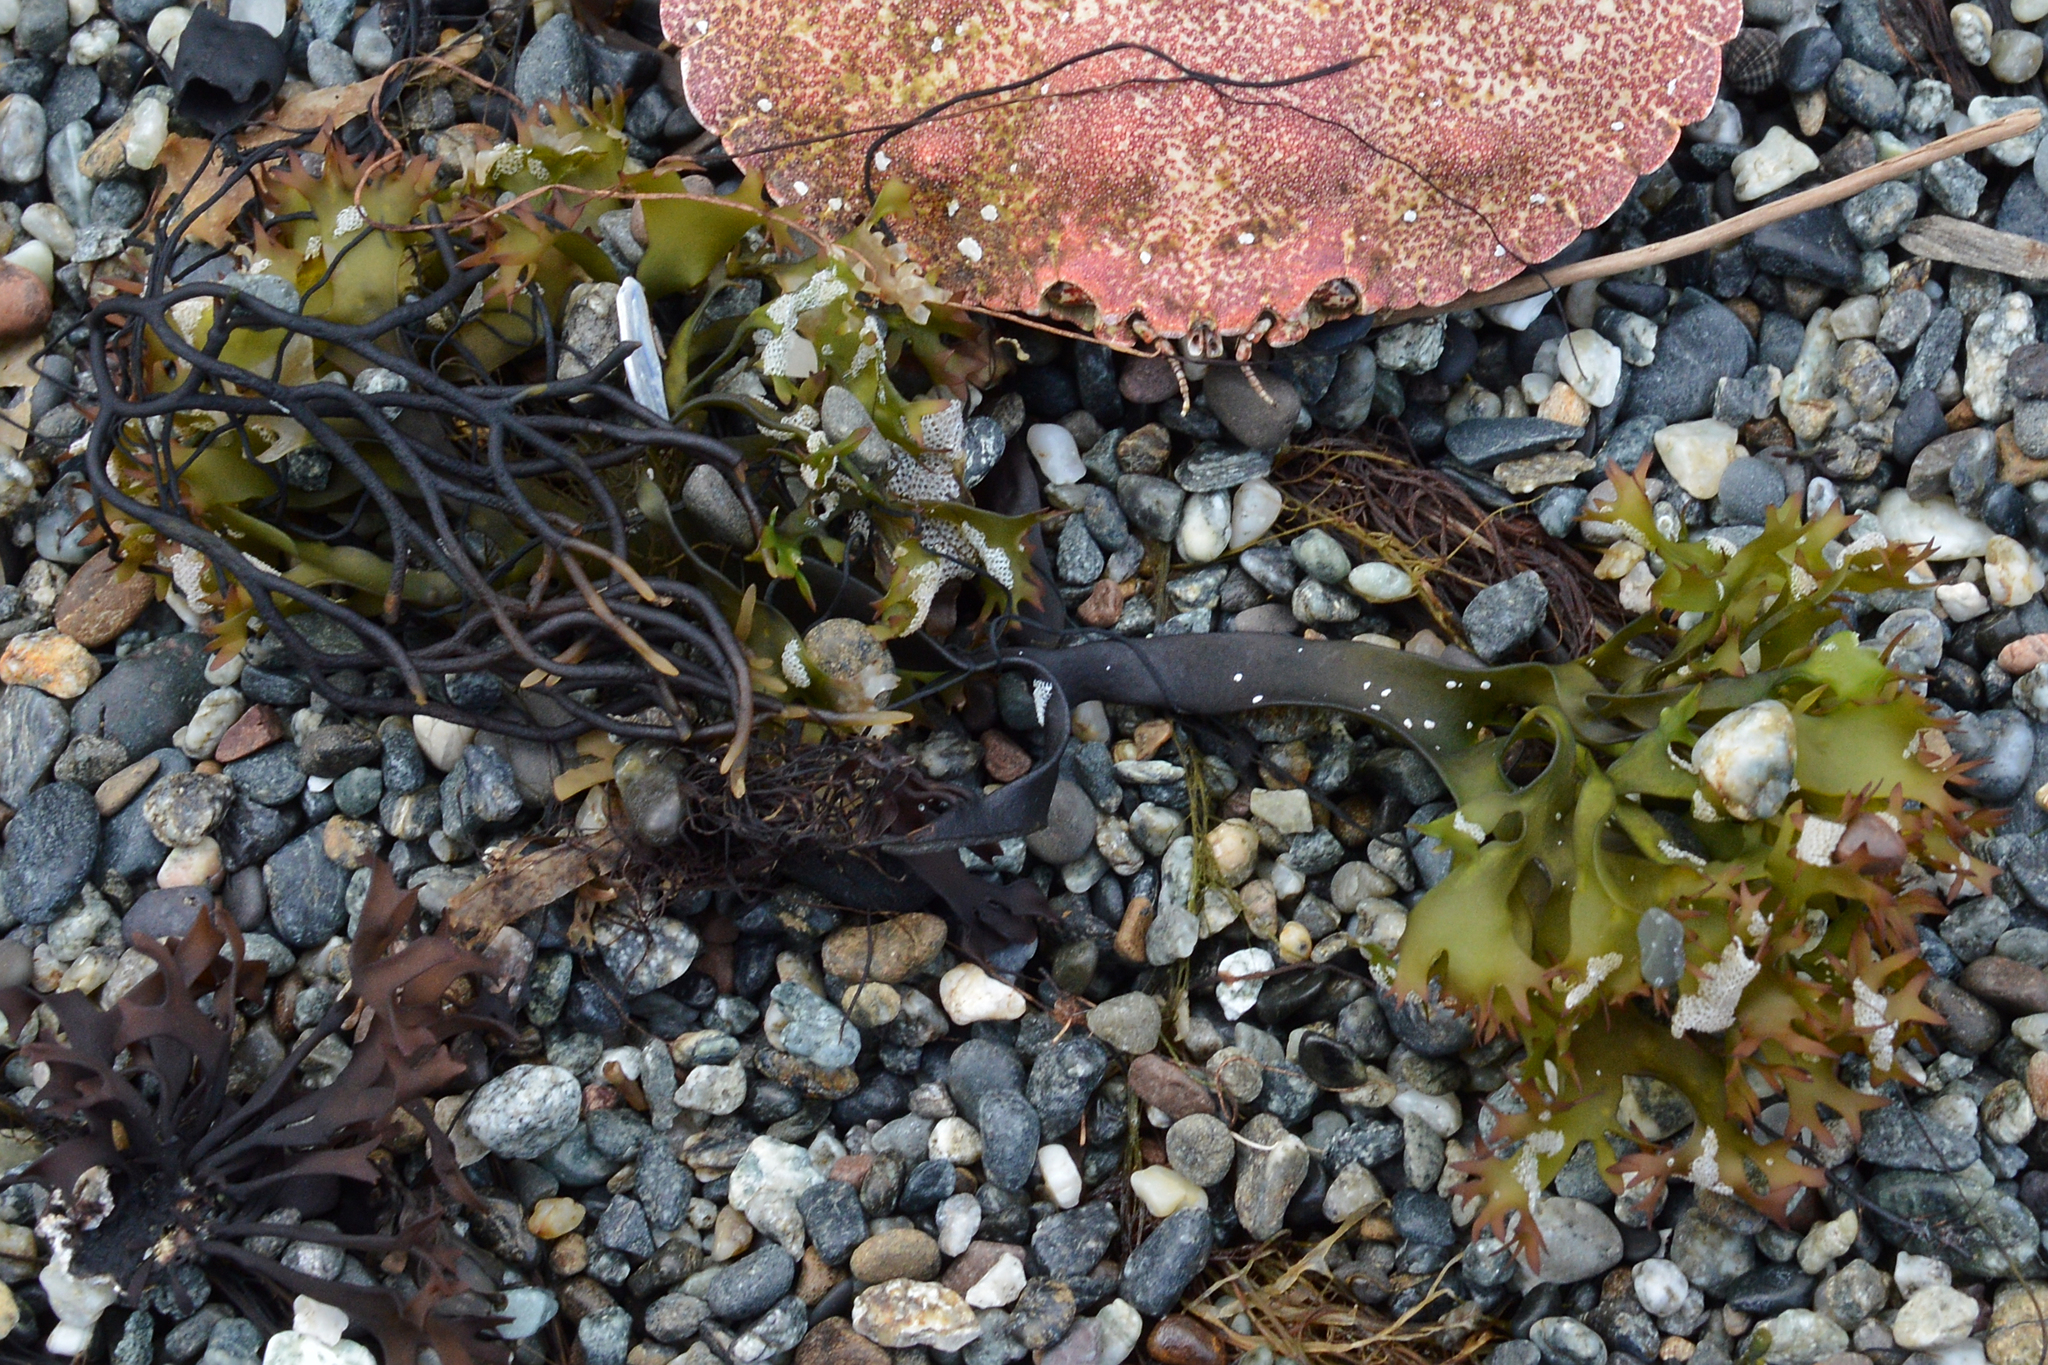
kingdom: Plantae
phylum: Rhodophyta
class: Florideophyceae
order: Gigartinales
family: Gigartinaceae
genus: Chondrus
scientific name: Chondrus crispus
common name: Carrageen
